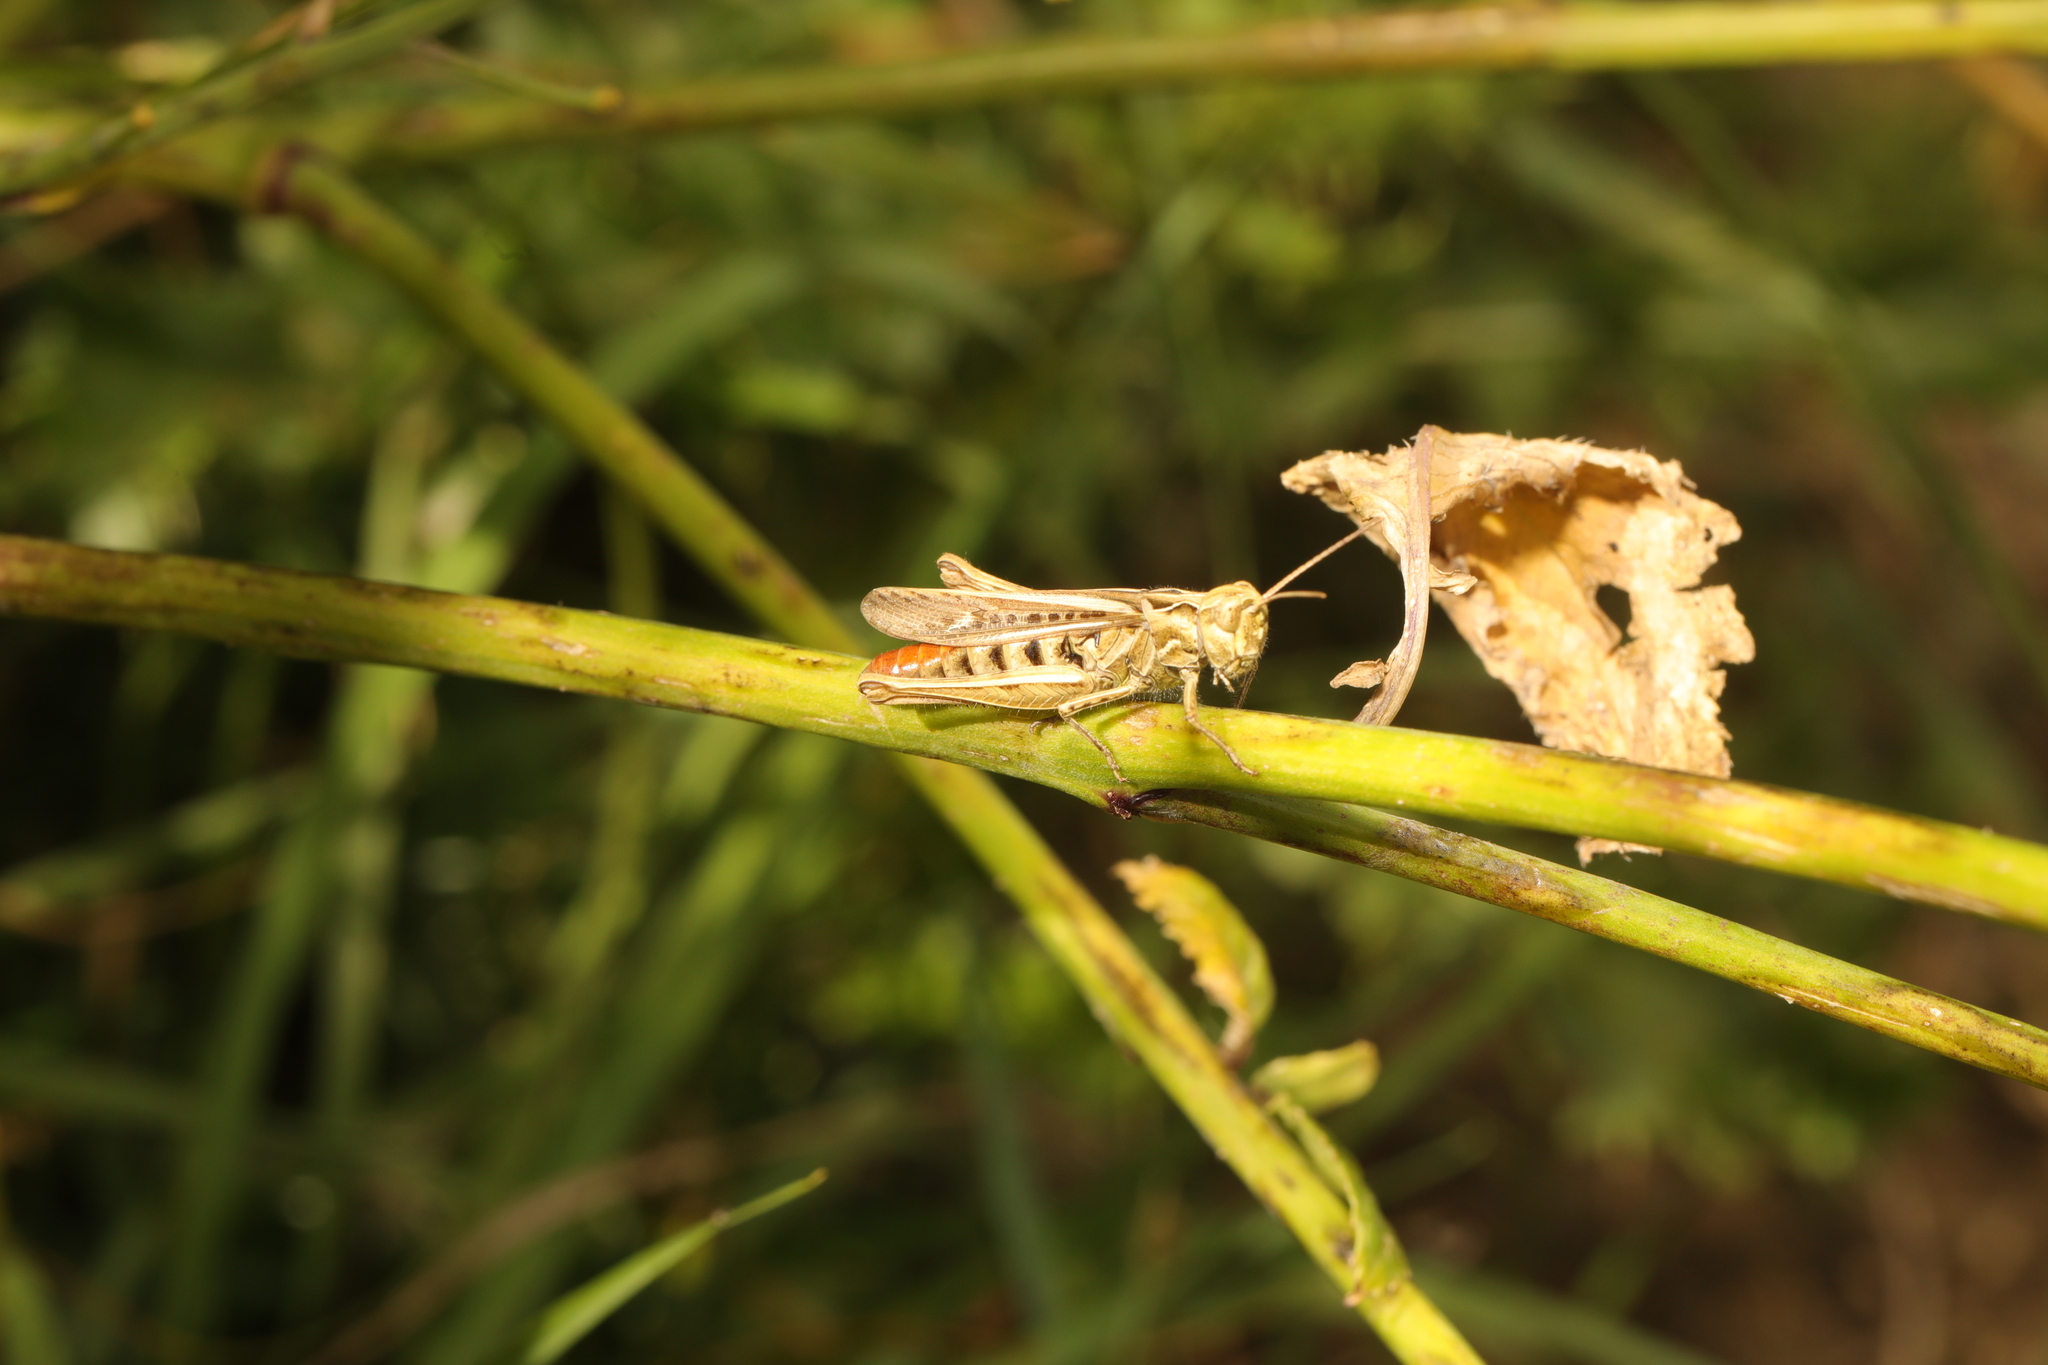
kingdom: Animalia
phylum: Arthropoda
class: Insecta
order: Orthoptera
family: Acrididae
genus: Chorthippus
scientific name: Chorthippus brunneus
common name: Field grasshopper
